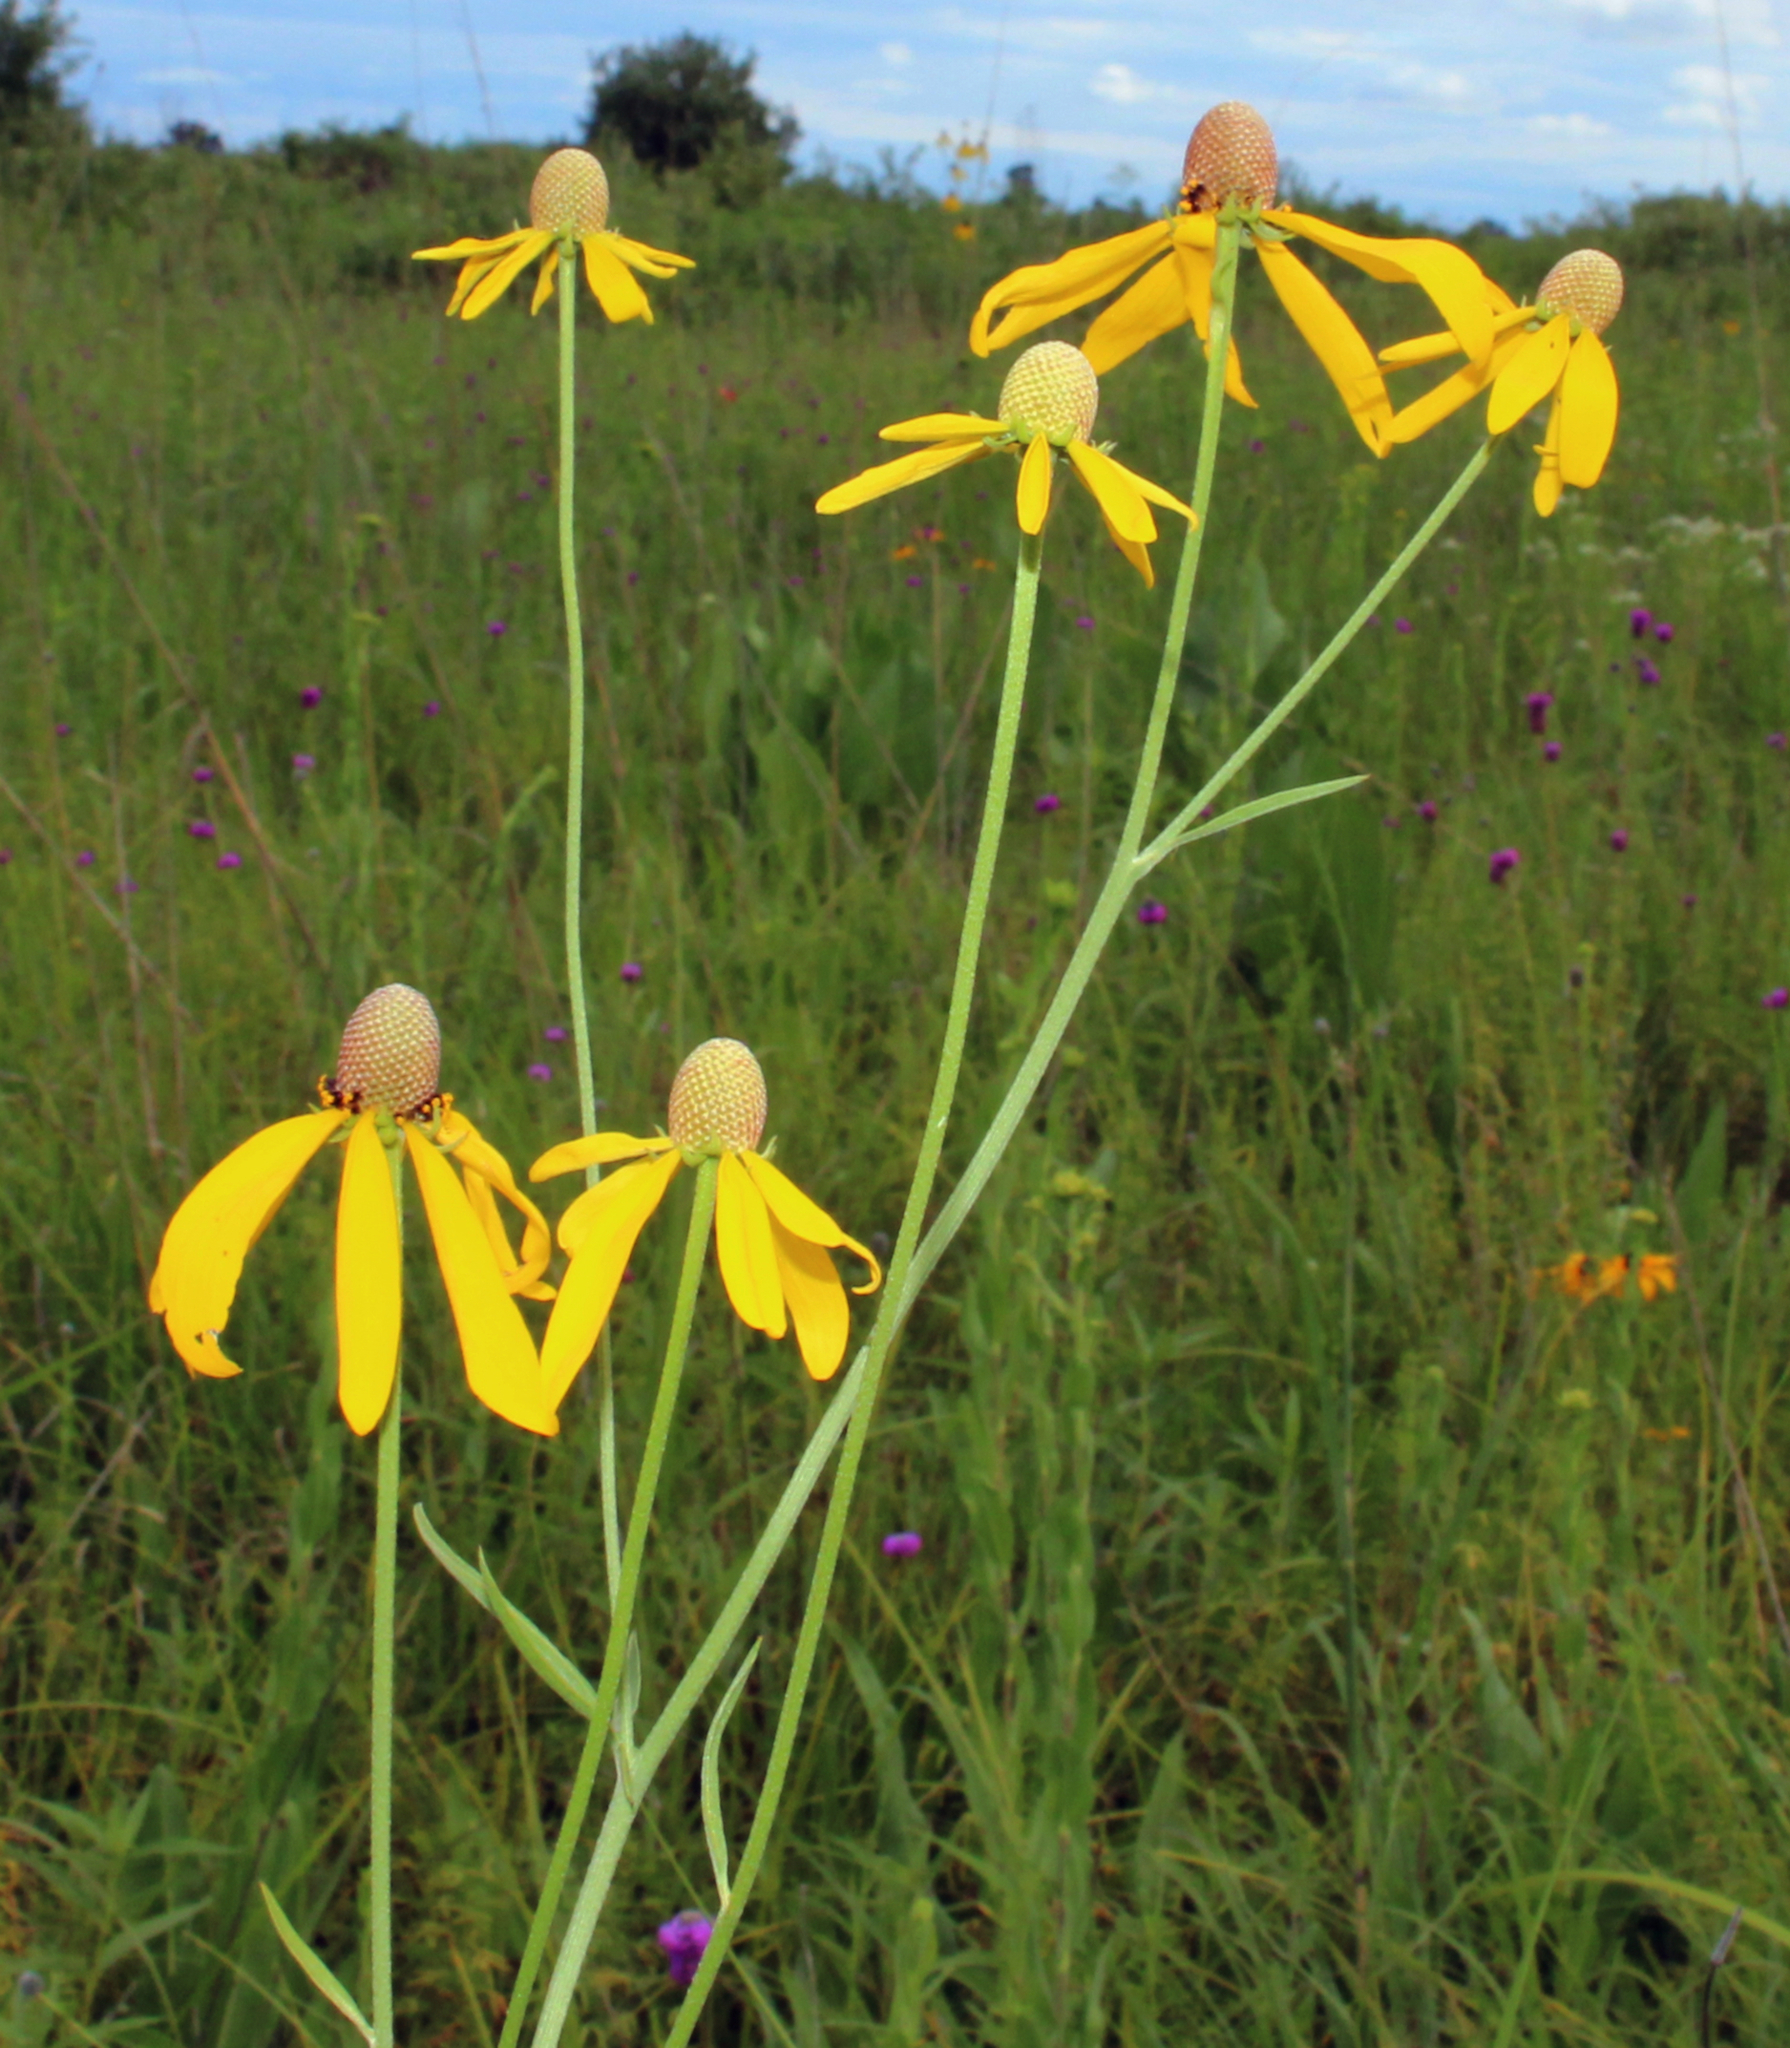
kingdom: Plantae
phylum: Tracheophyta
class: Magnoliopsida
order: Asterales
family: Asteraceae
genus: Ratibida
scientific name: Ratibida pinnata
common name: Drooping prairie-coneflower
